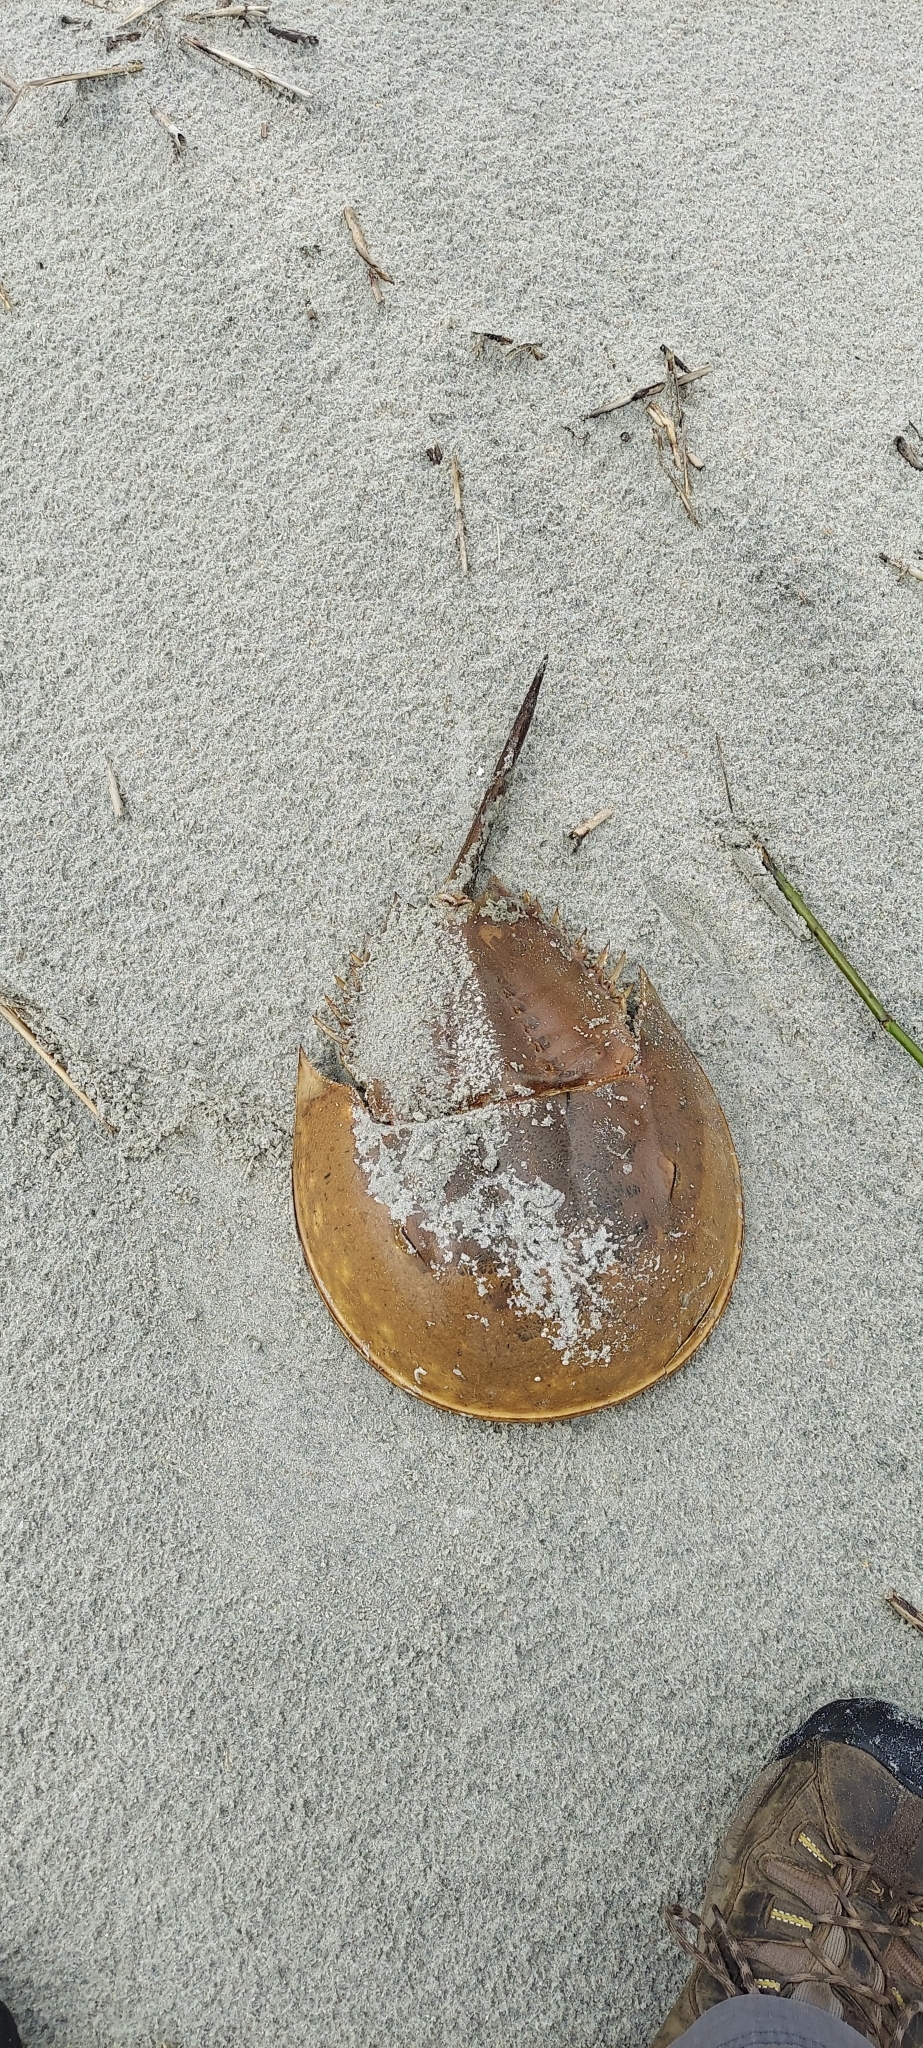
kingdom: Animalia
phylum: Arthropoda
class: Merostomata
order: Xiphosurida
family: Limulidae
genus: Limulus
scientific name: Limulus polyphemus
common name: Horseshoe crab
